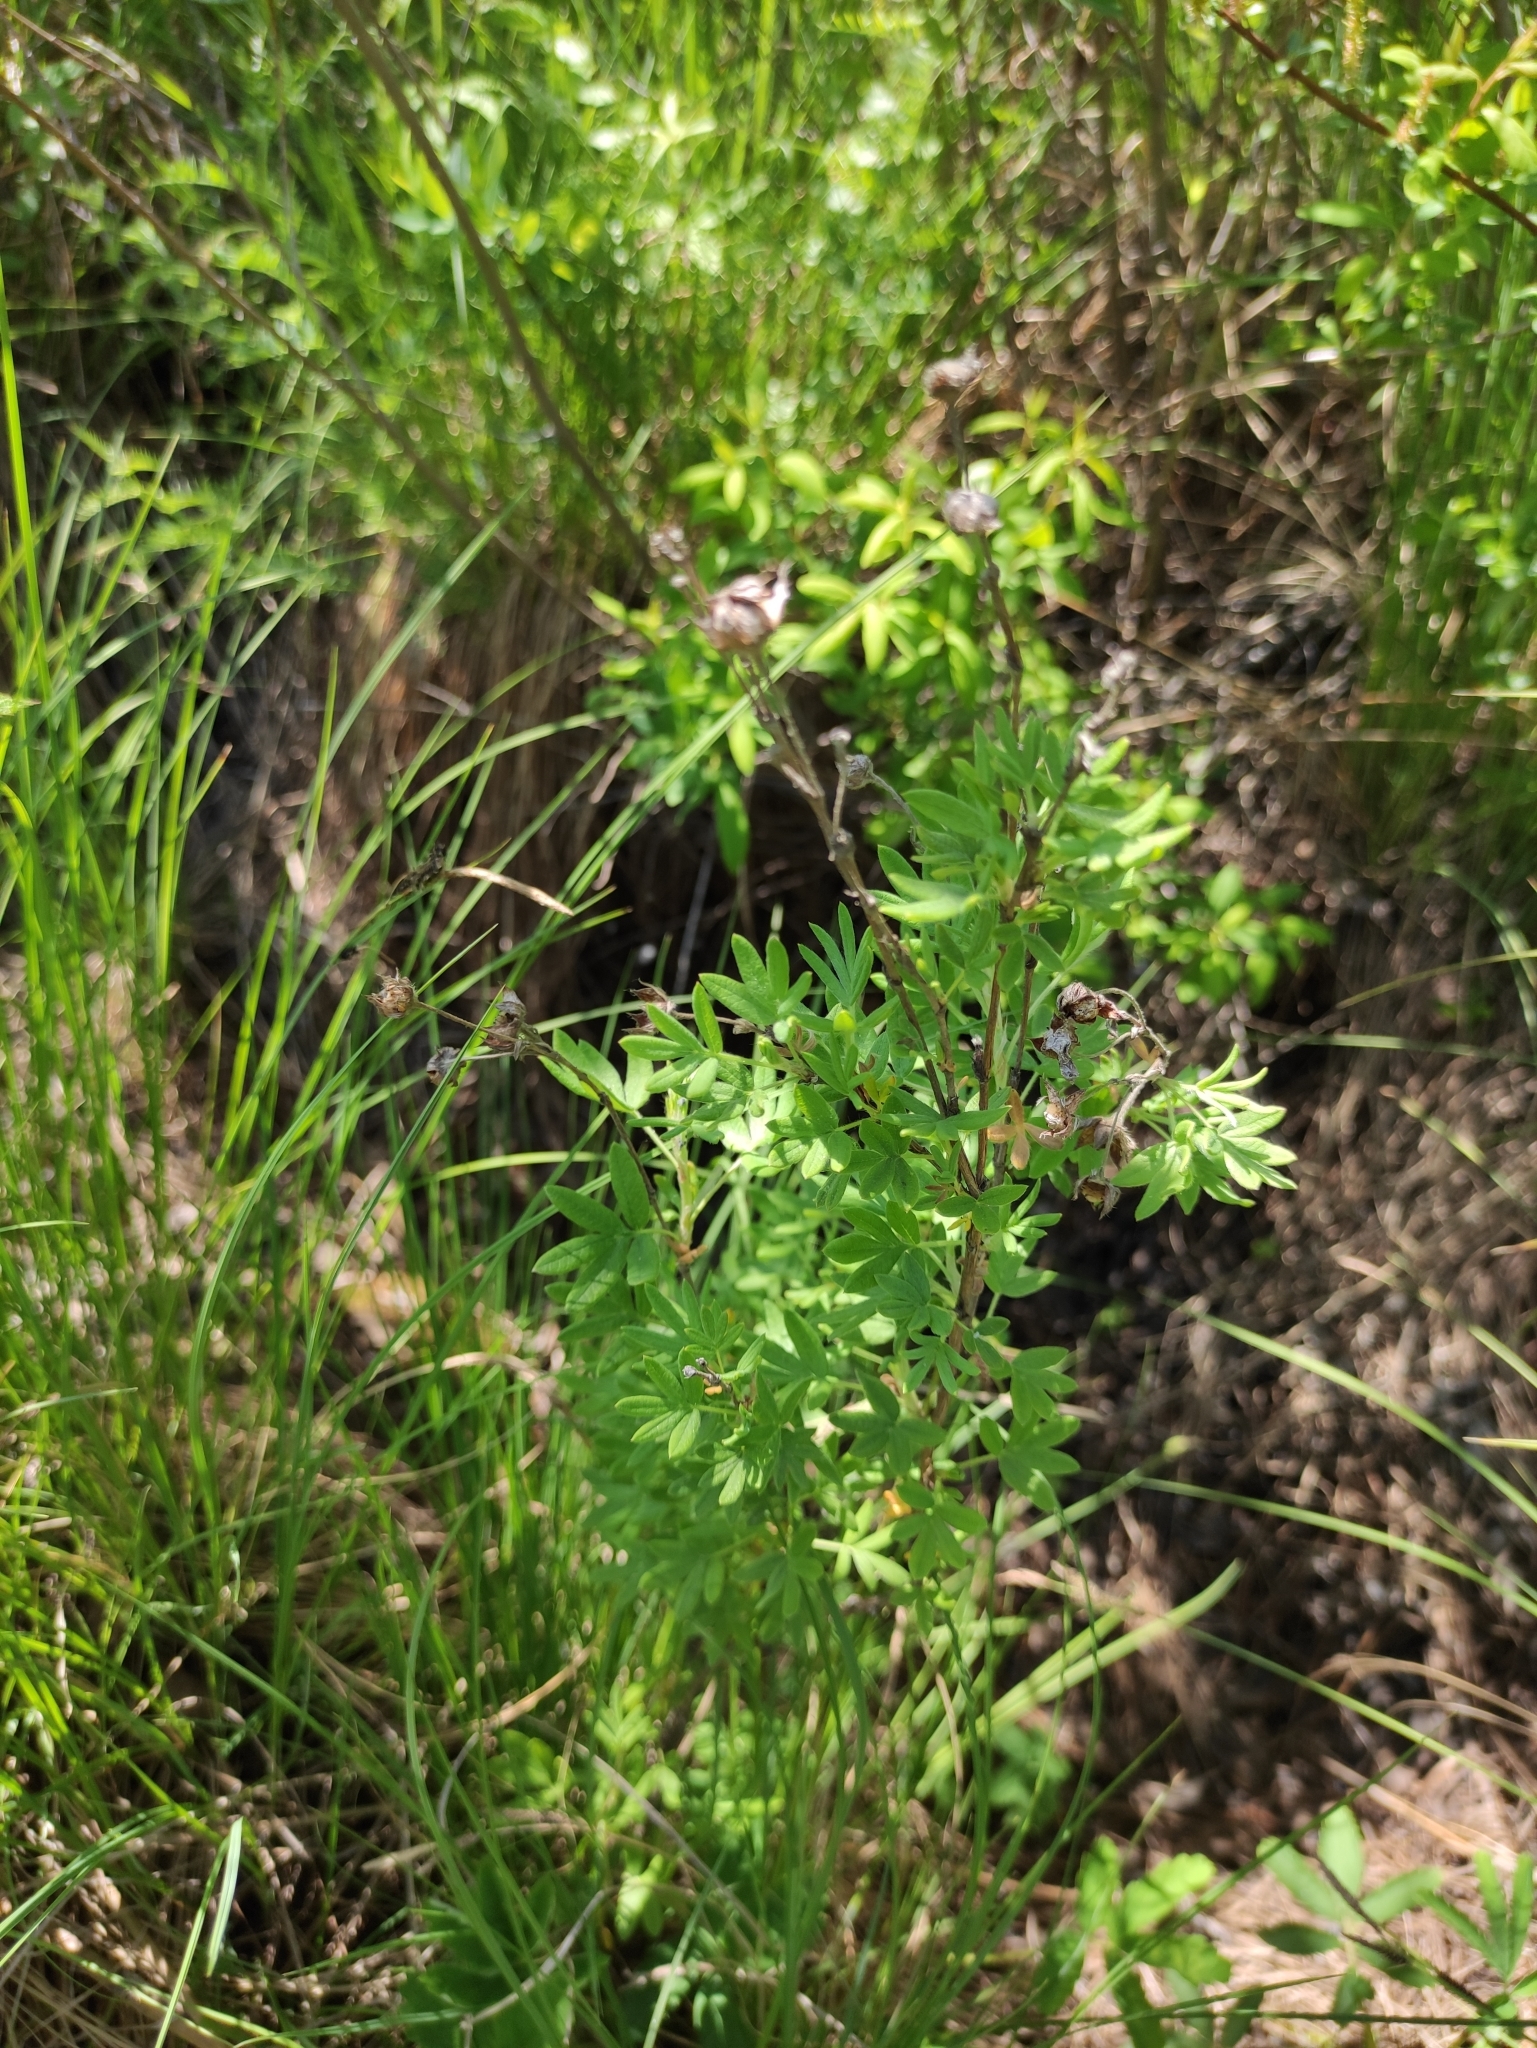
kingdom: Plantae
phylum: Tracheophyta
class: Magnoliopsida
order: Rosales
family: Rosaceae
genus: Dasiphora
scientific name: Dasiphora fruticosa
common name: Shrubby cinquefoil
